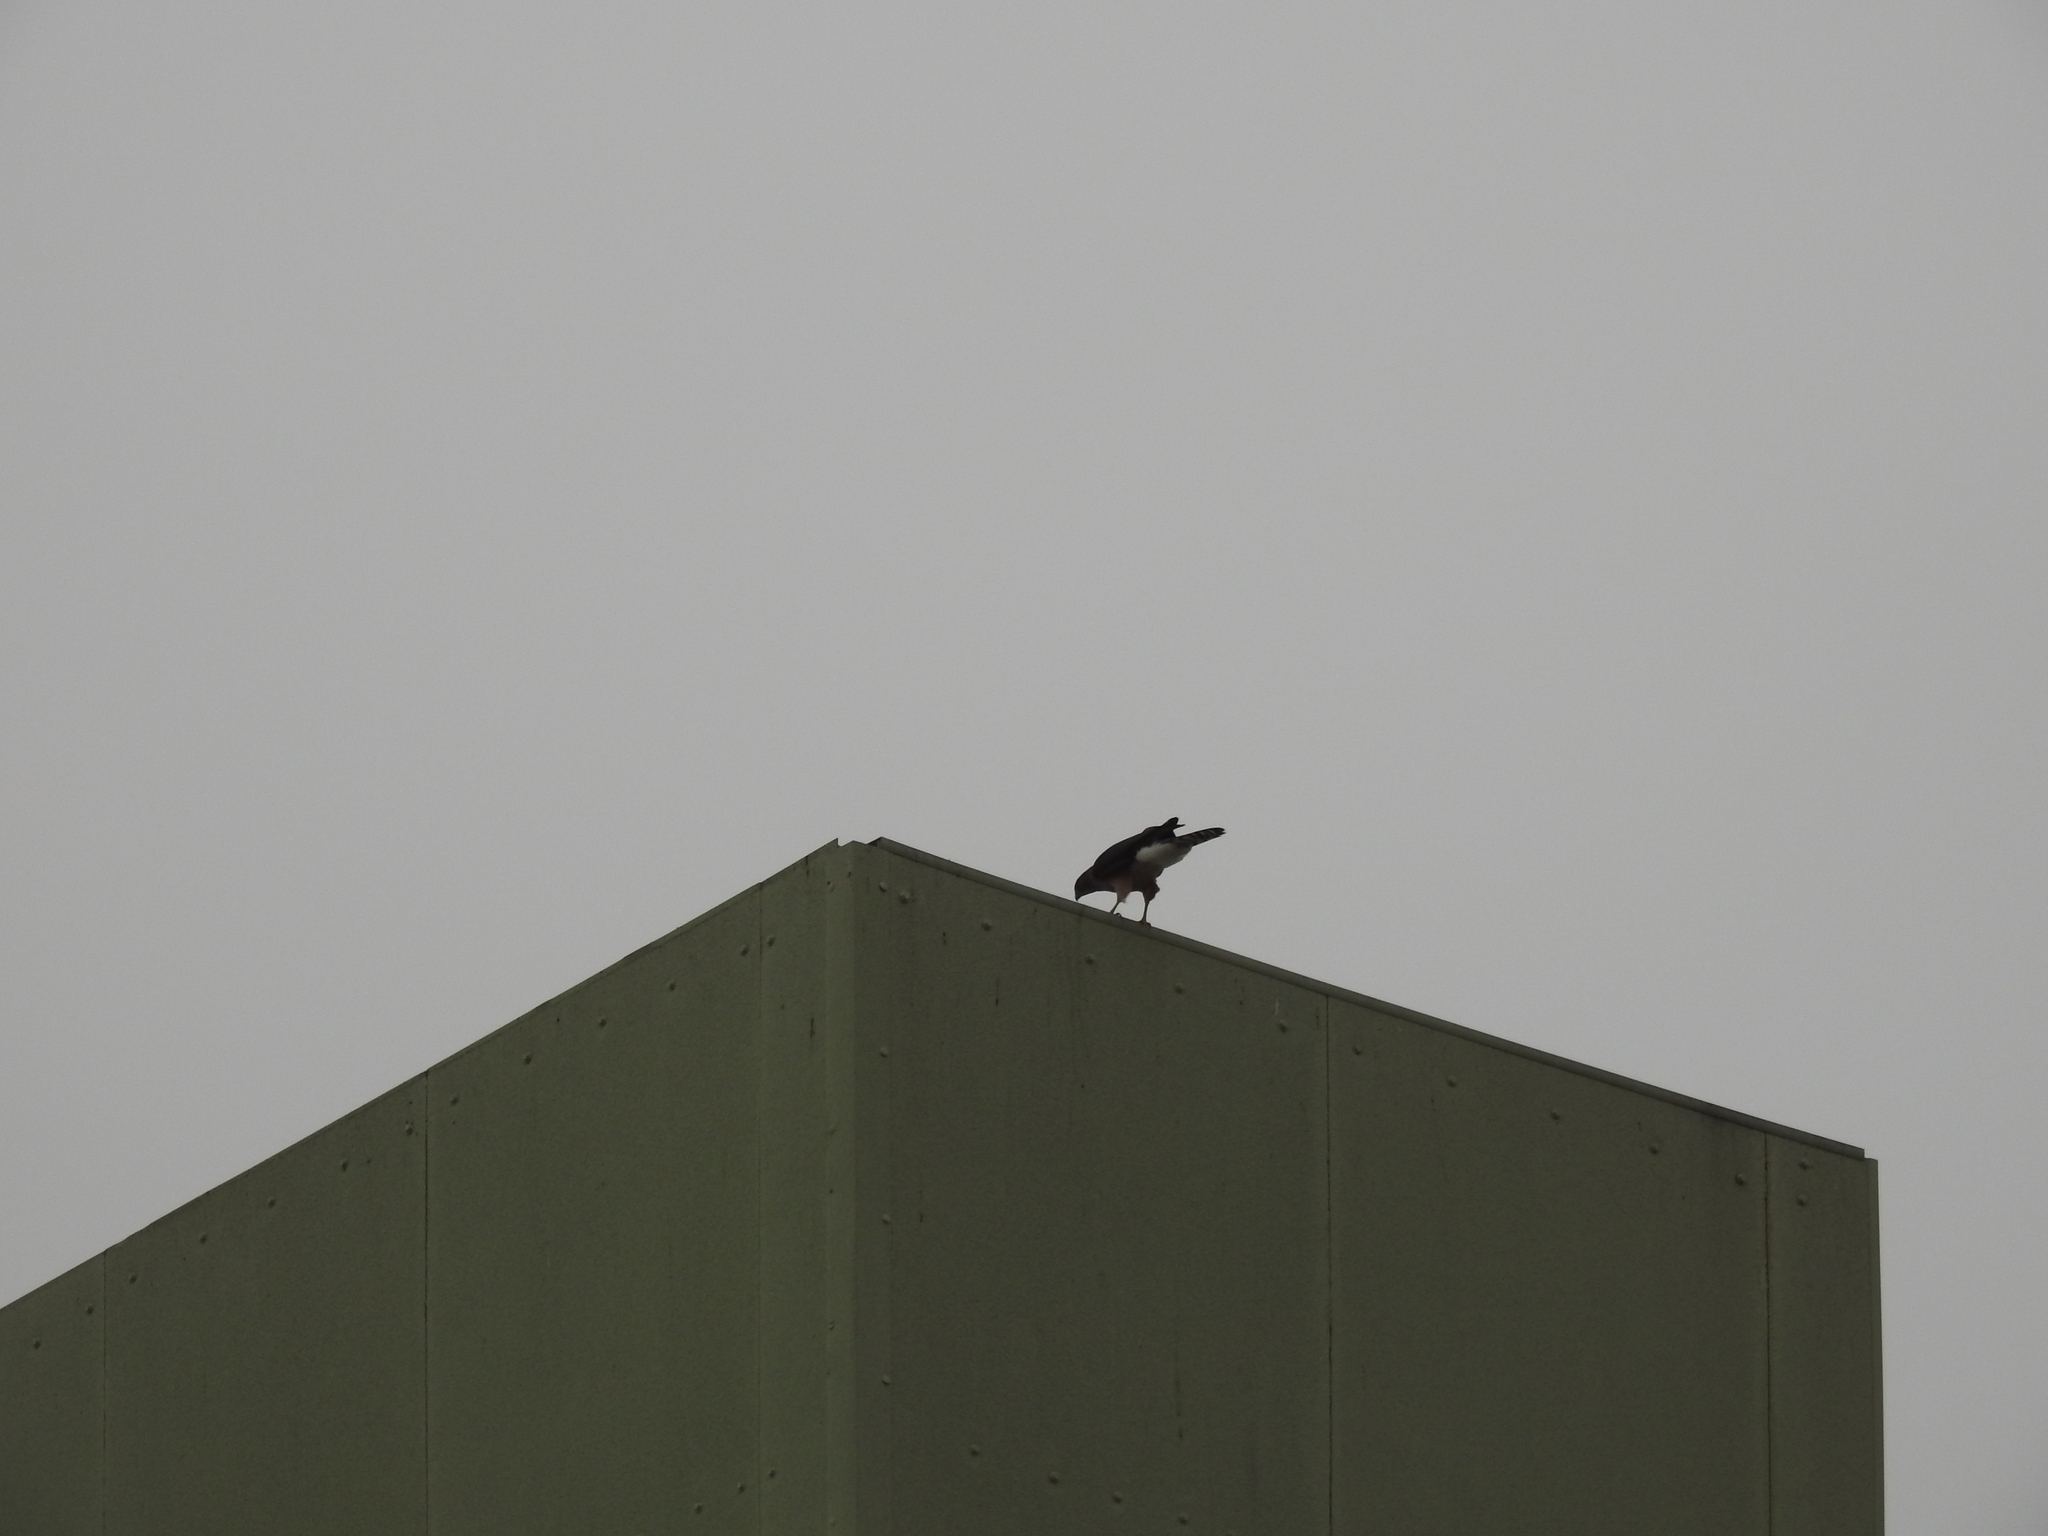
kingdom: Animalia
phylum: Chordata
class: Aves
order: Accipitriformes
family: Accipitridae
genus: Accipiter
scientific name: Accipiter cooperii
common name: Cooper's hawk
